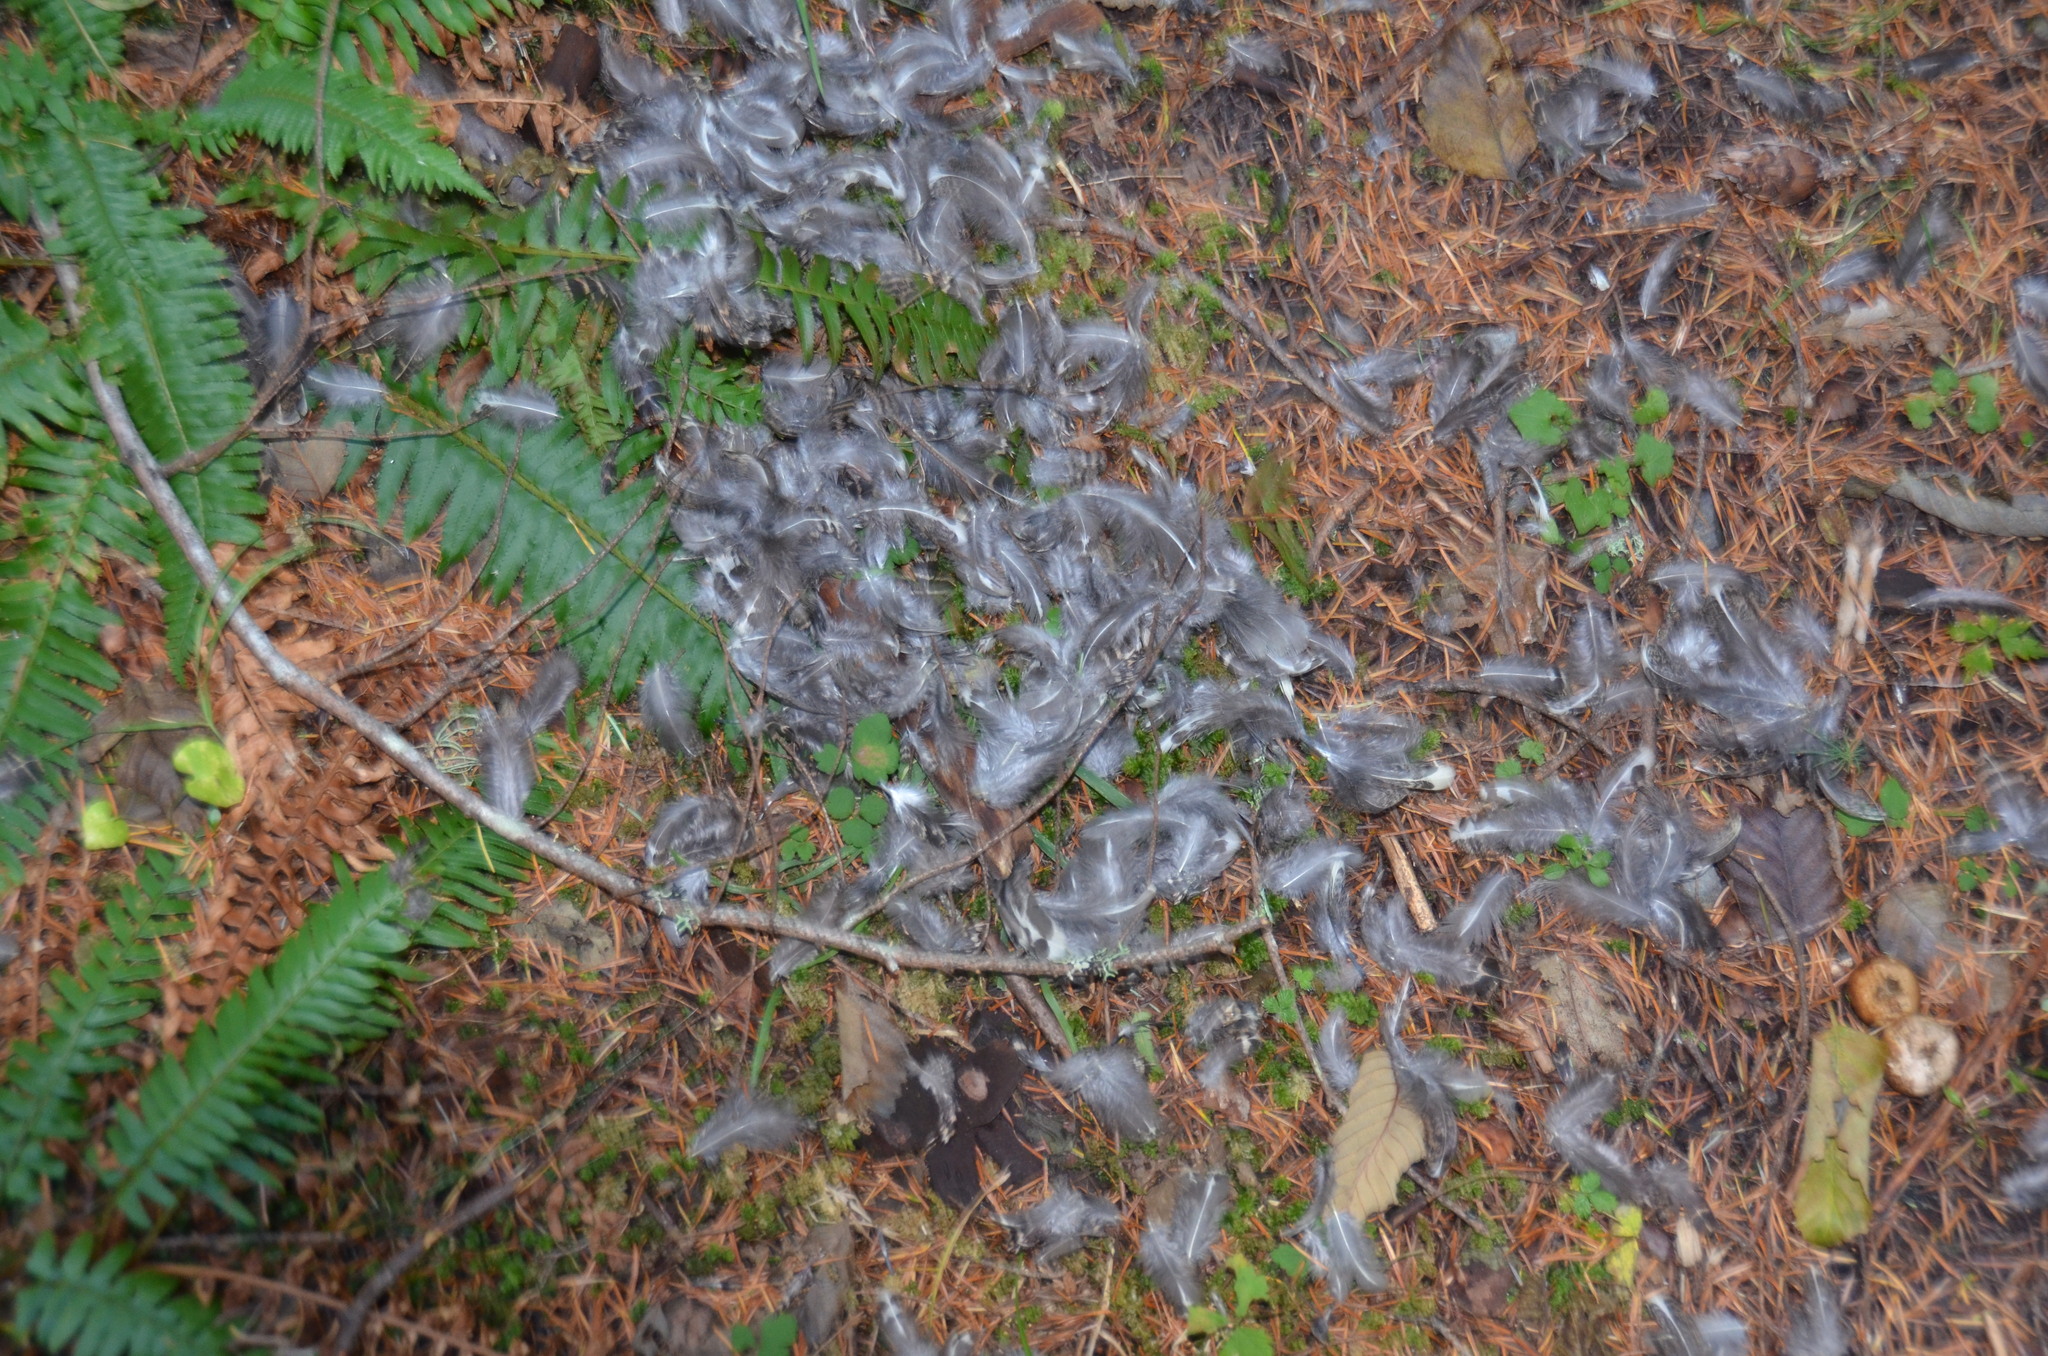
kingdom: Animalia
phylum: Chordata
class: Aves
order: Galliformes
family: Phasianidae
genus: Dendragapus
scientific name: Dendragapus fuliginosus
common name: Sooty grouse
